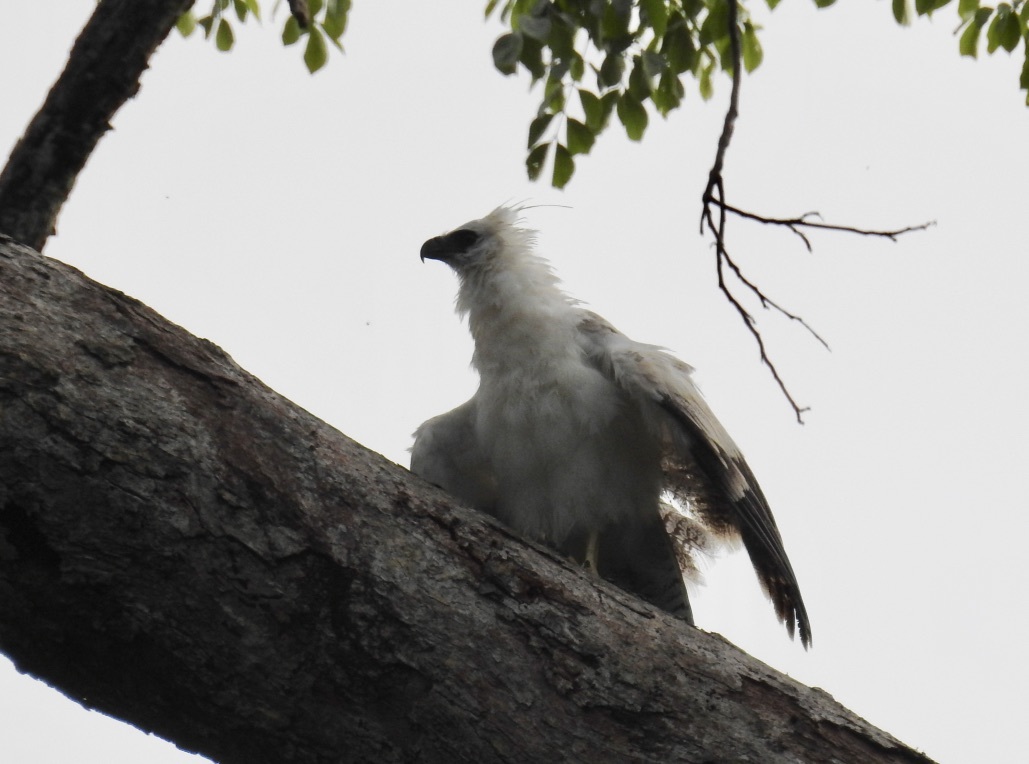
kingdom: Animalia
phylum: Chordata
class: Aves
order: Accipitriformes
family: Accipitridae
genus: Morphnus
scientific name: Morphnus guianensis
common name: Crested eagle
